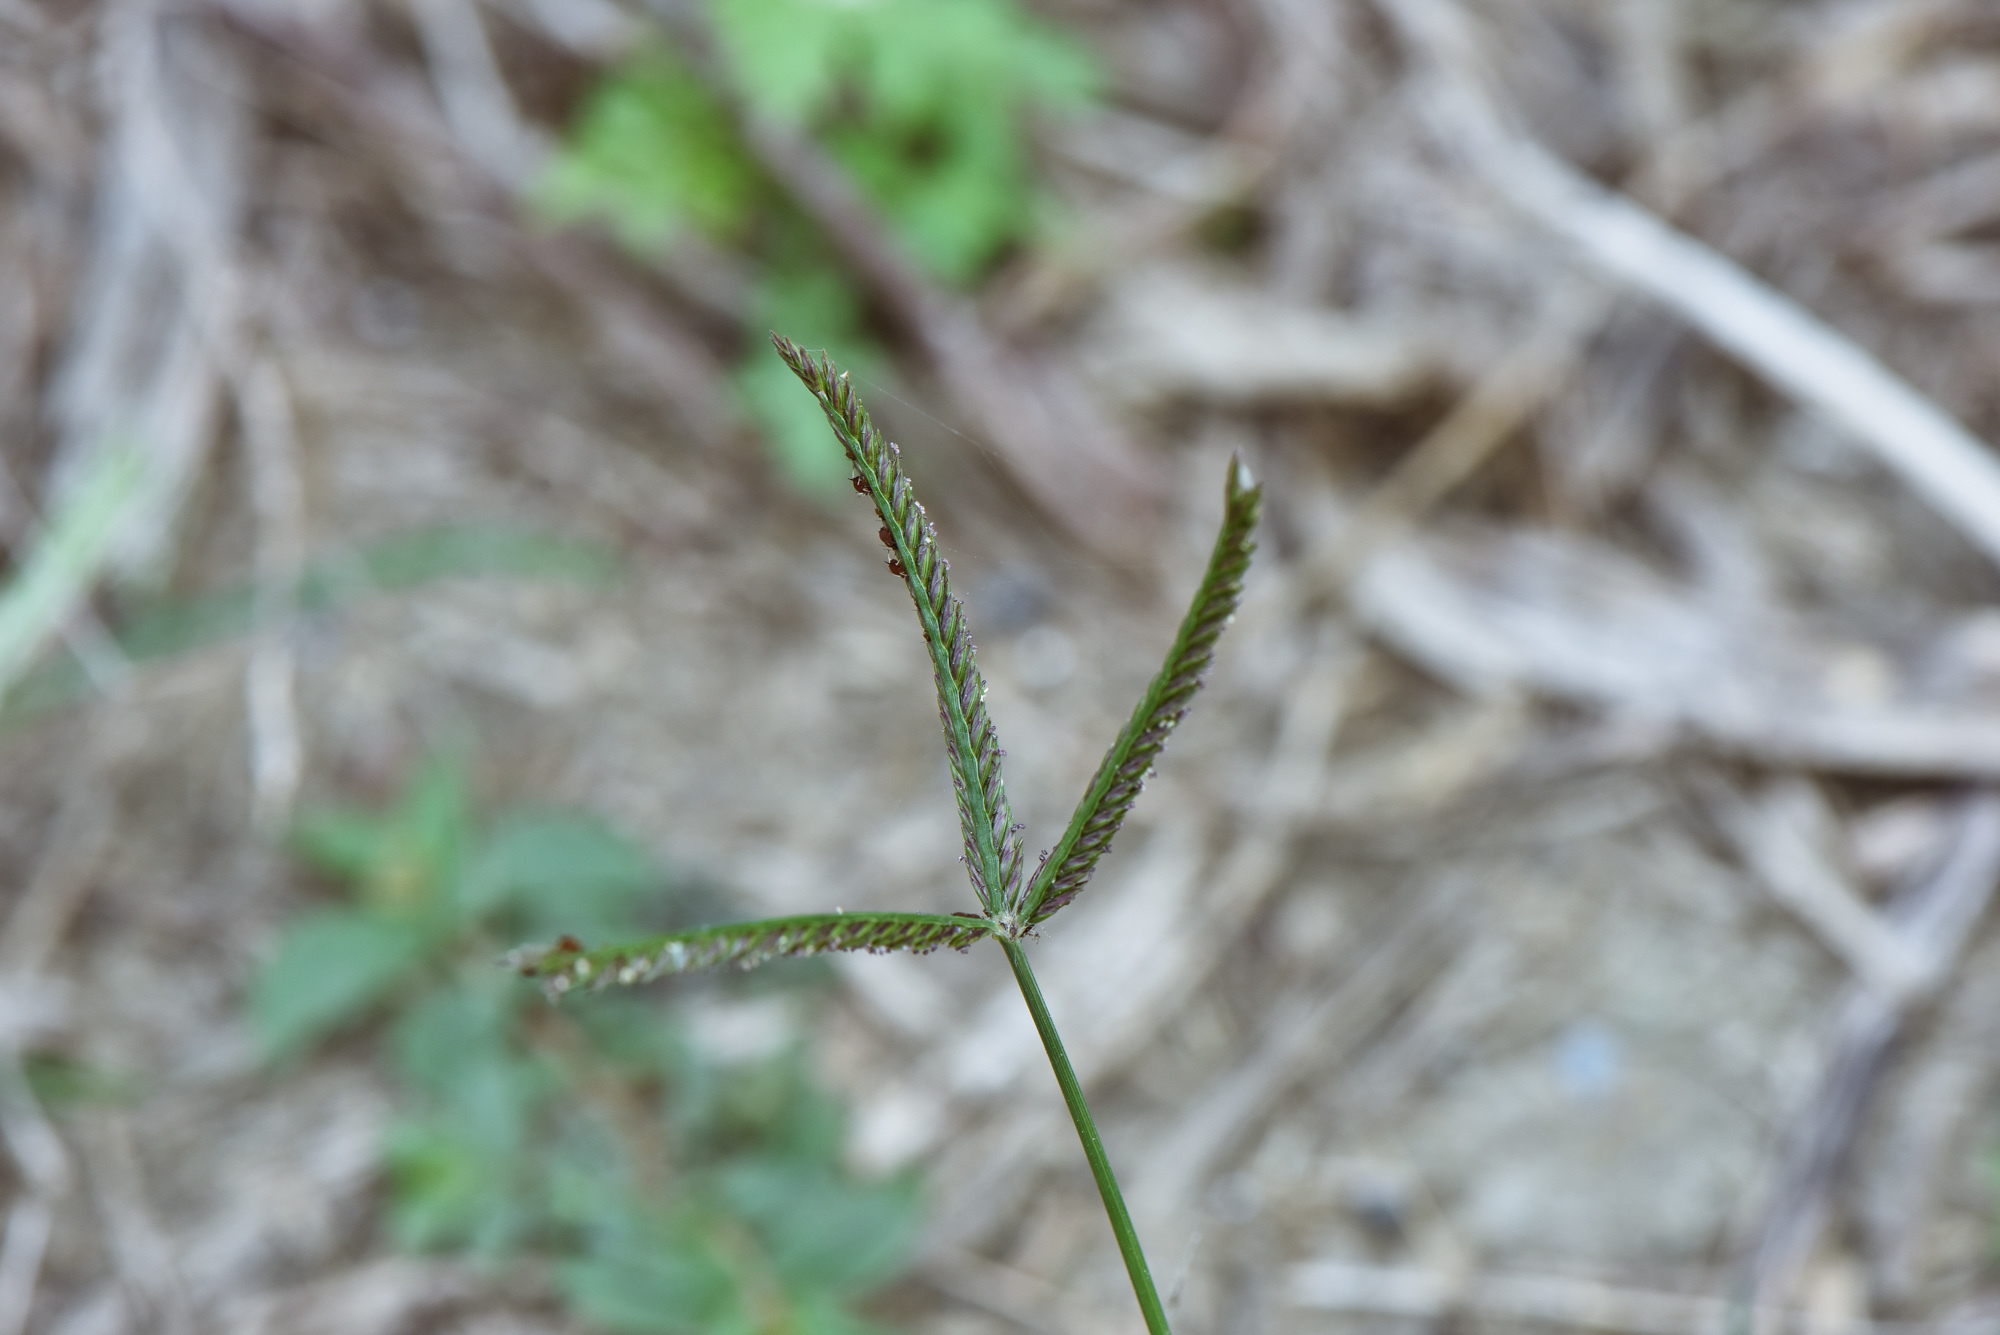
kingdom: Plantae
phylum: Tracheophyta
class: Liliopsida
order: Poales
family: Poaceae
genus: Eleusine
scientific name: Eleusine indica
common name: Yard-grass
